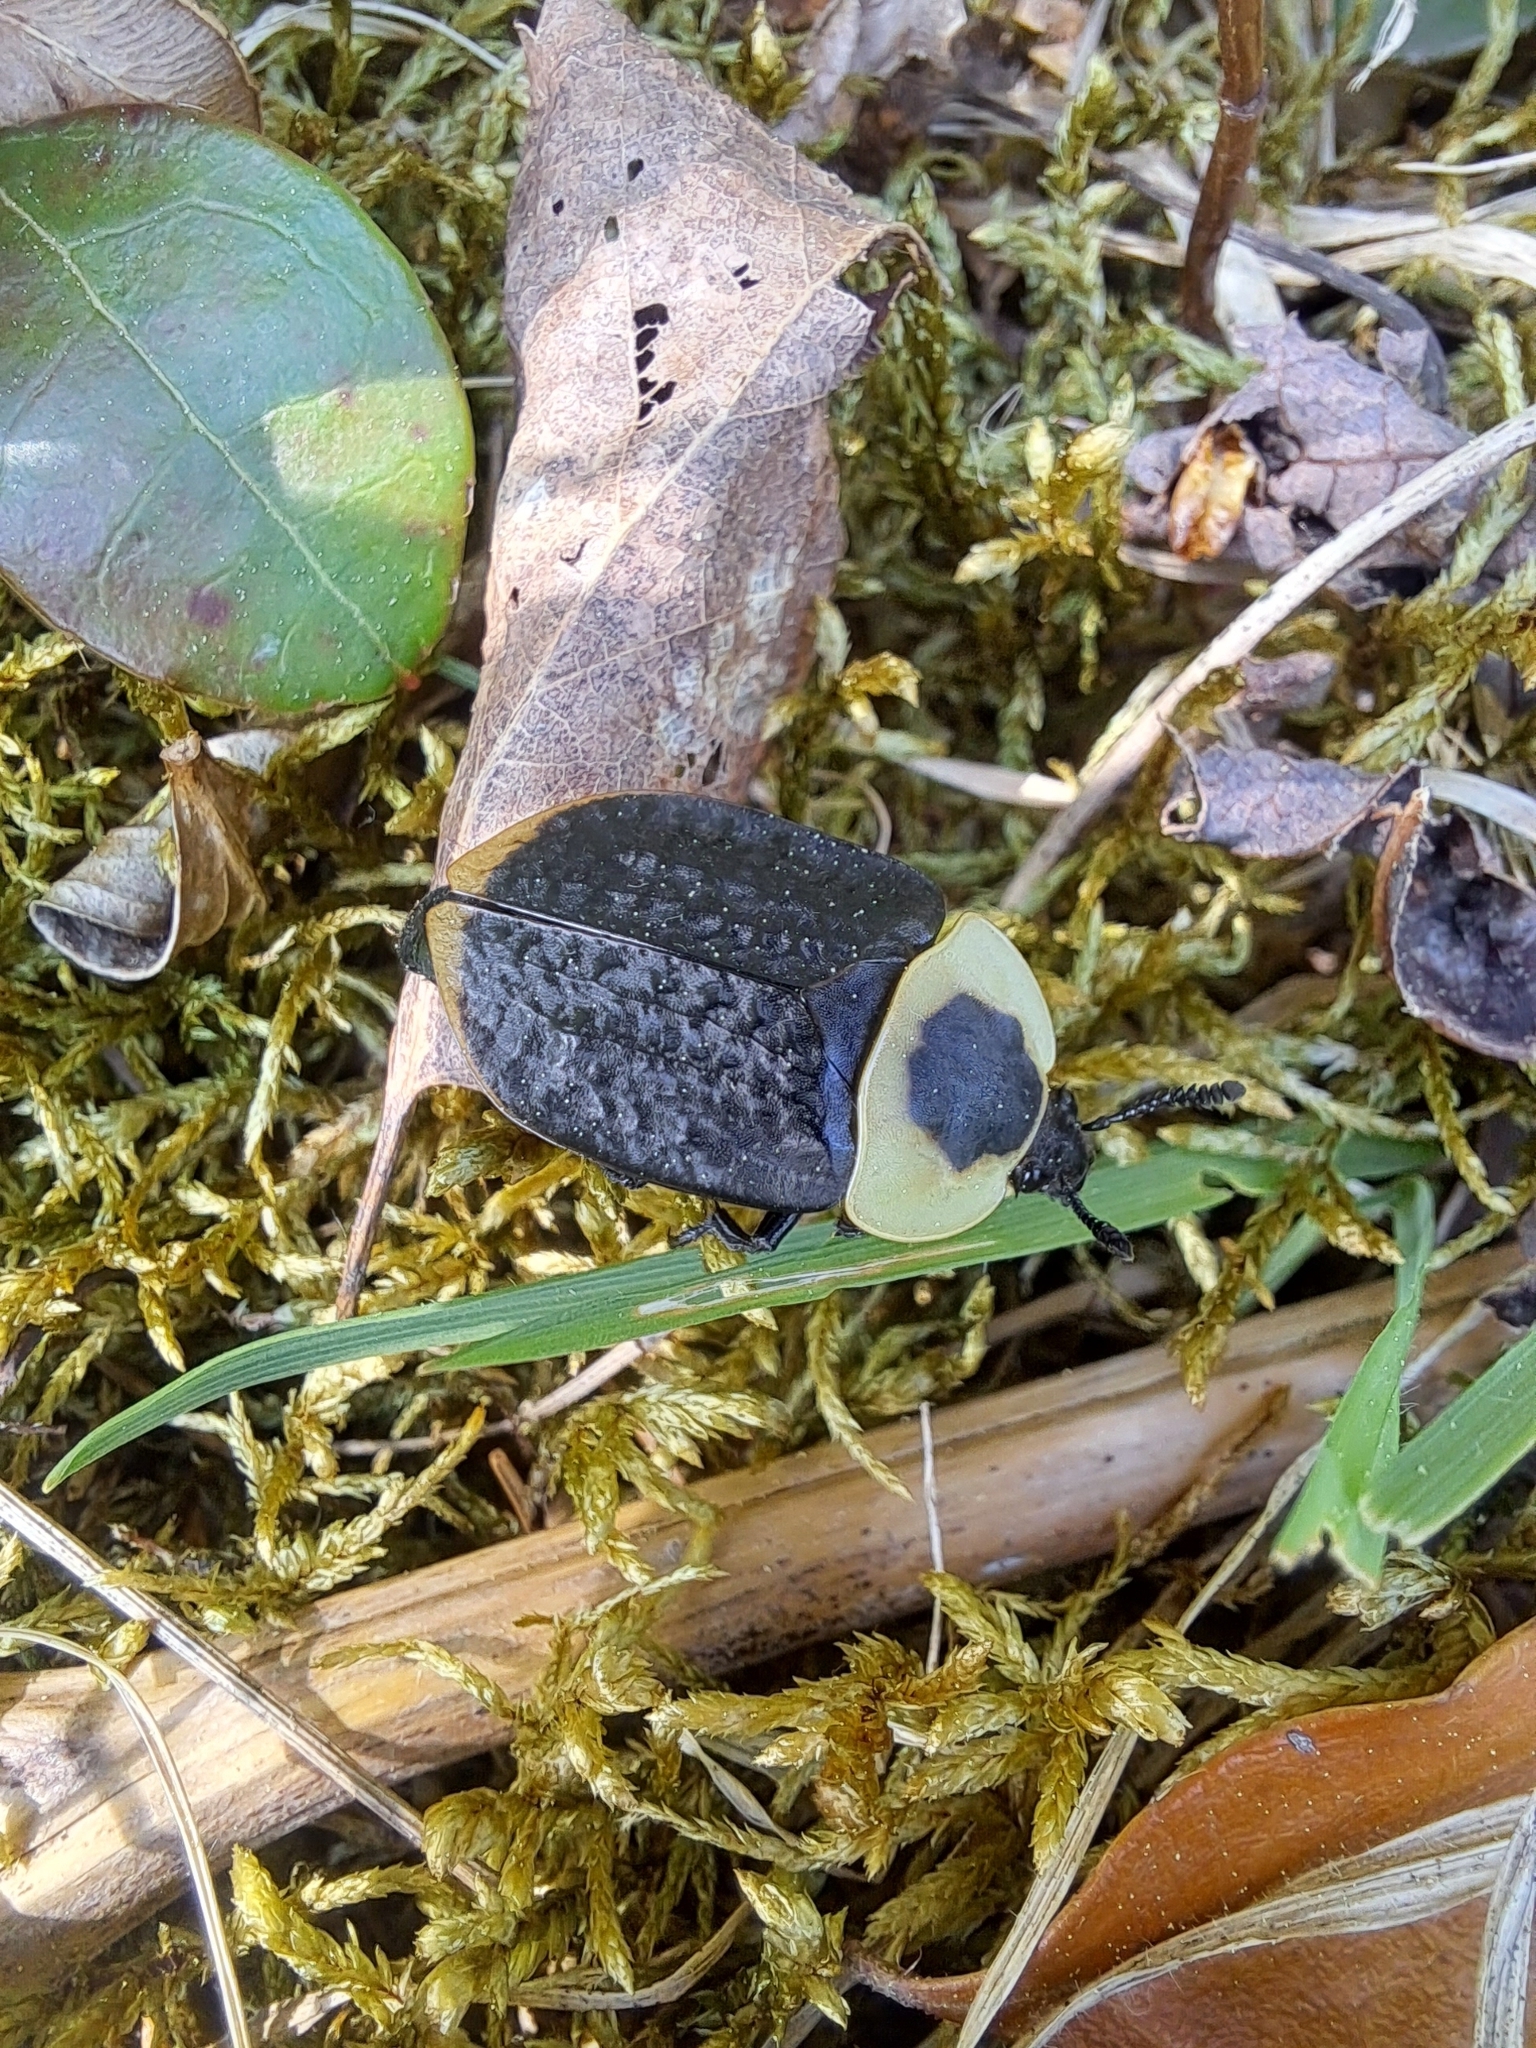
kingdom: Animalia
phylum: Arthropoda
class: Insecta
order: Coleoptera
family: Staphylinidae
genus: Necrophila
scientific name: Necrophila americana
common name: American carrion beetle
